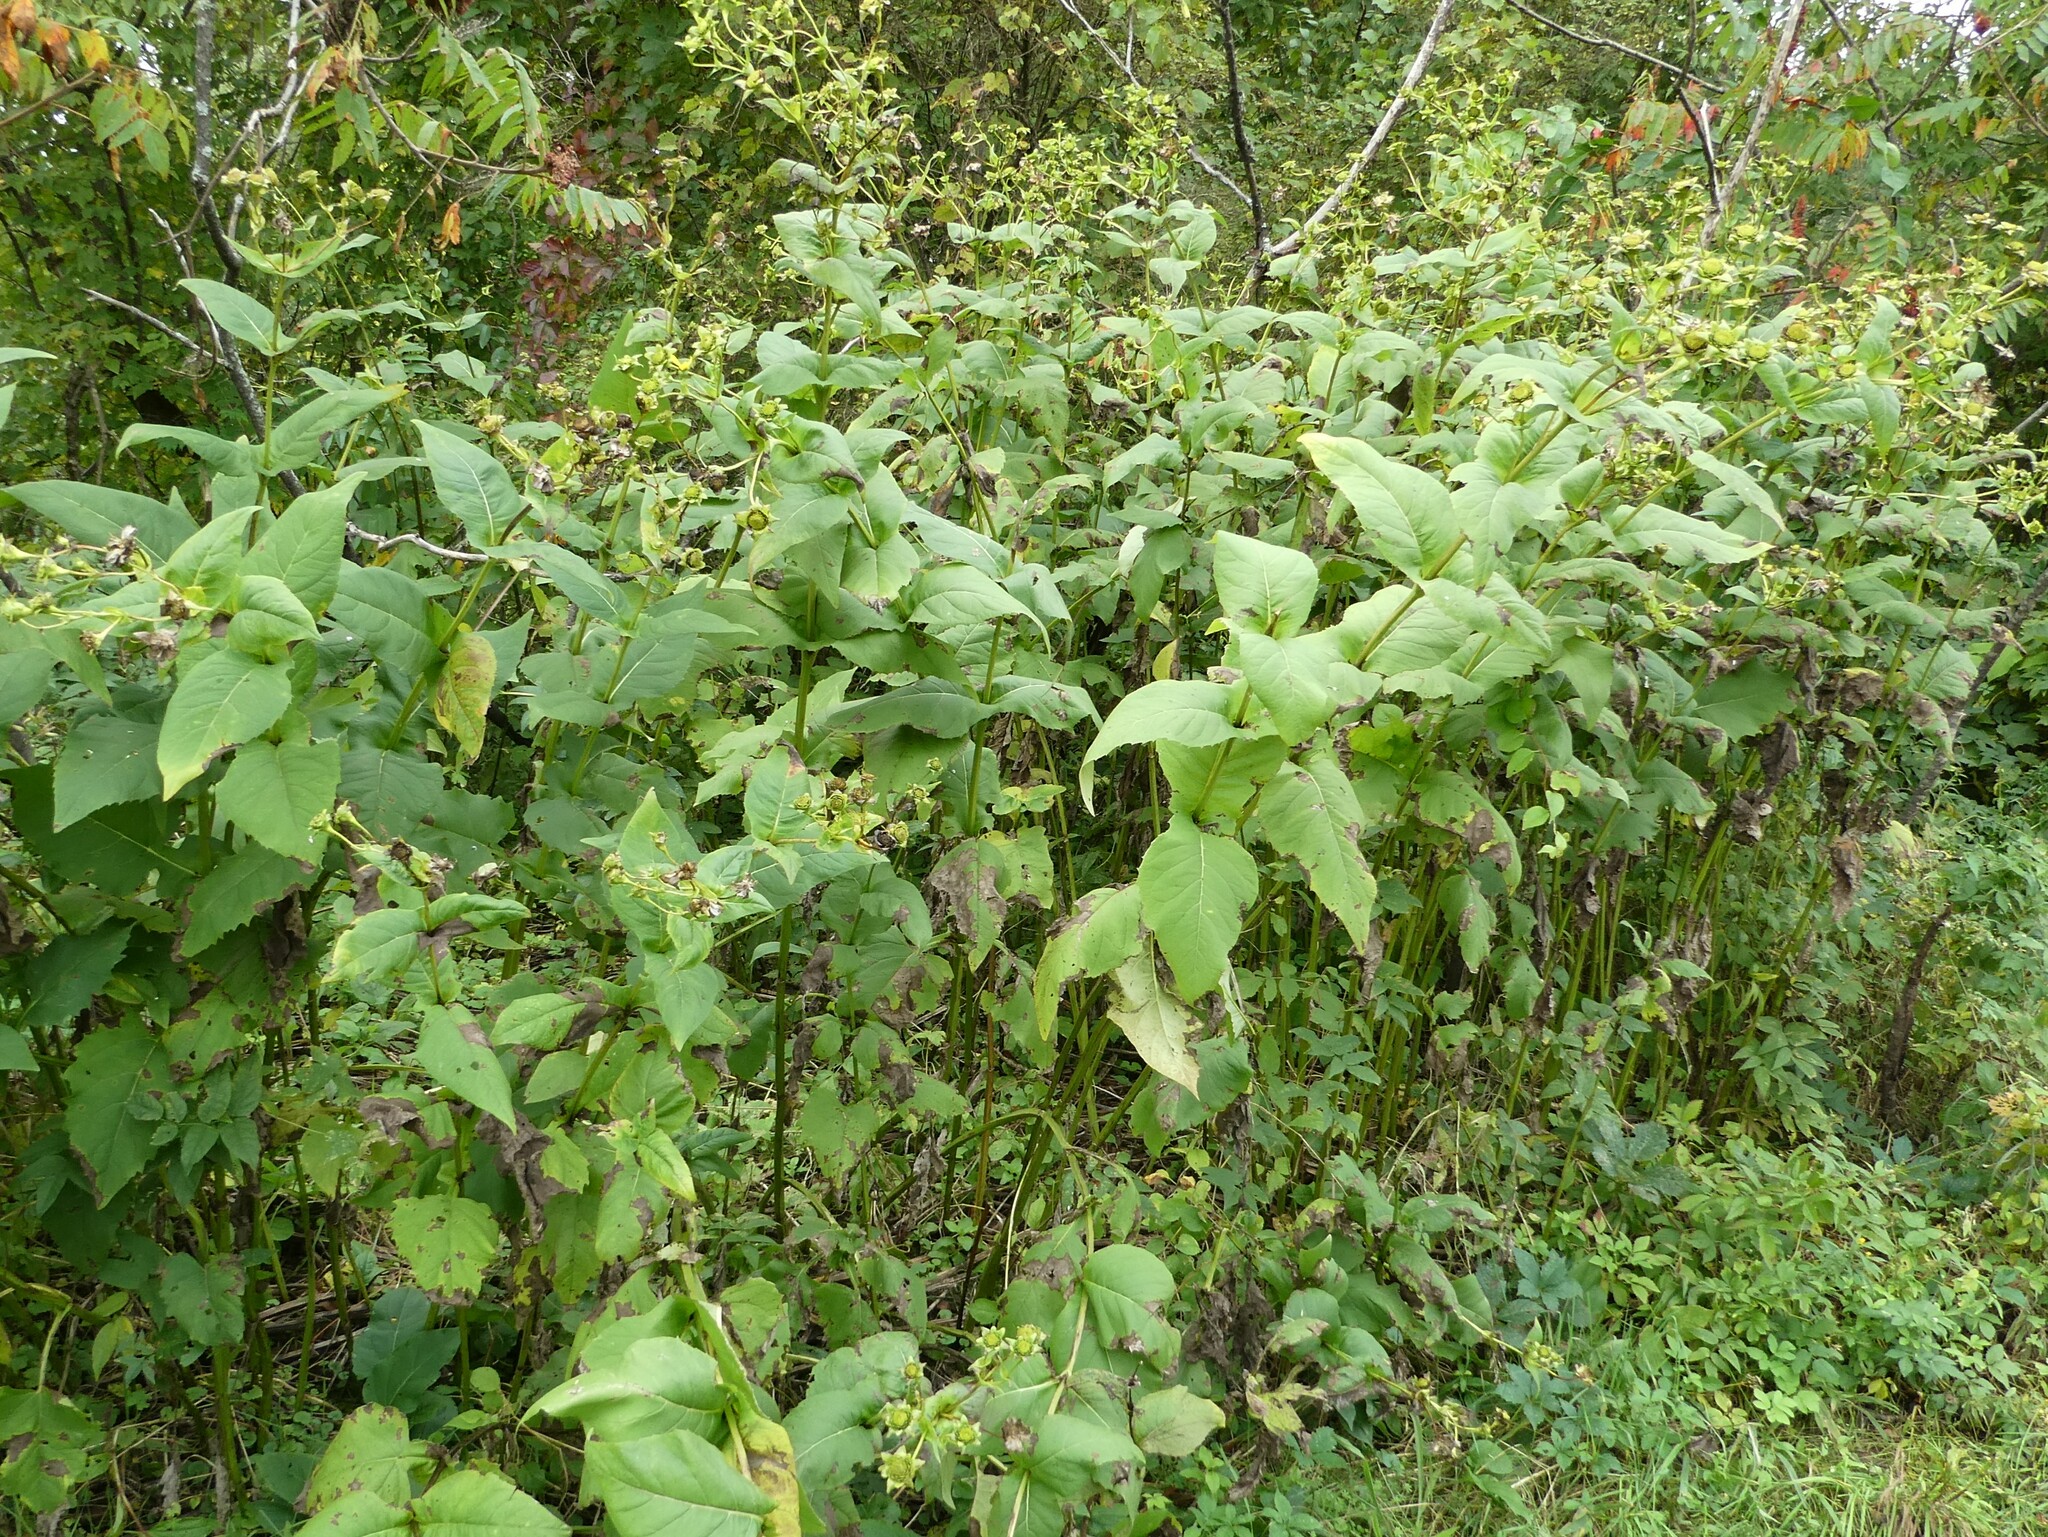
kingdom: Plantae
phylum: Tracheophyta
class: Magnoliopsida
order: Asterales
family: Asteraceae
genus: Silphium
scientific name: Silphium perfoliatum
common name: Cup-plant
